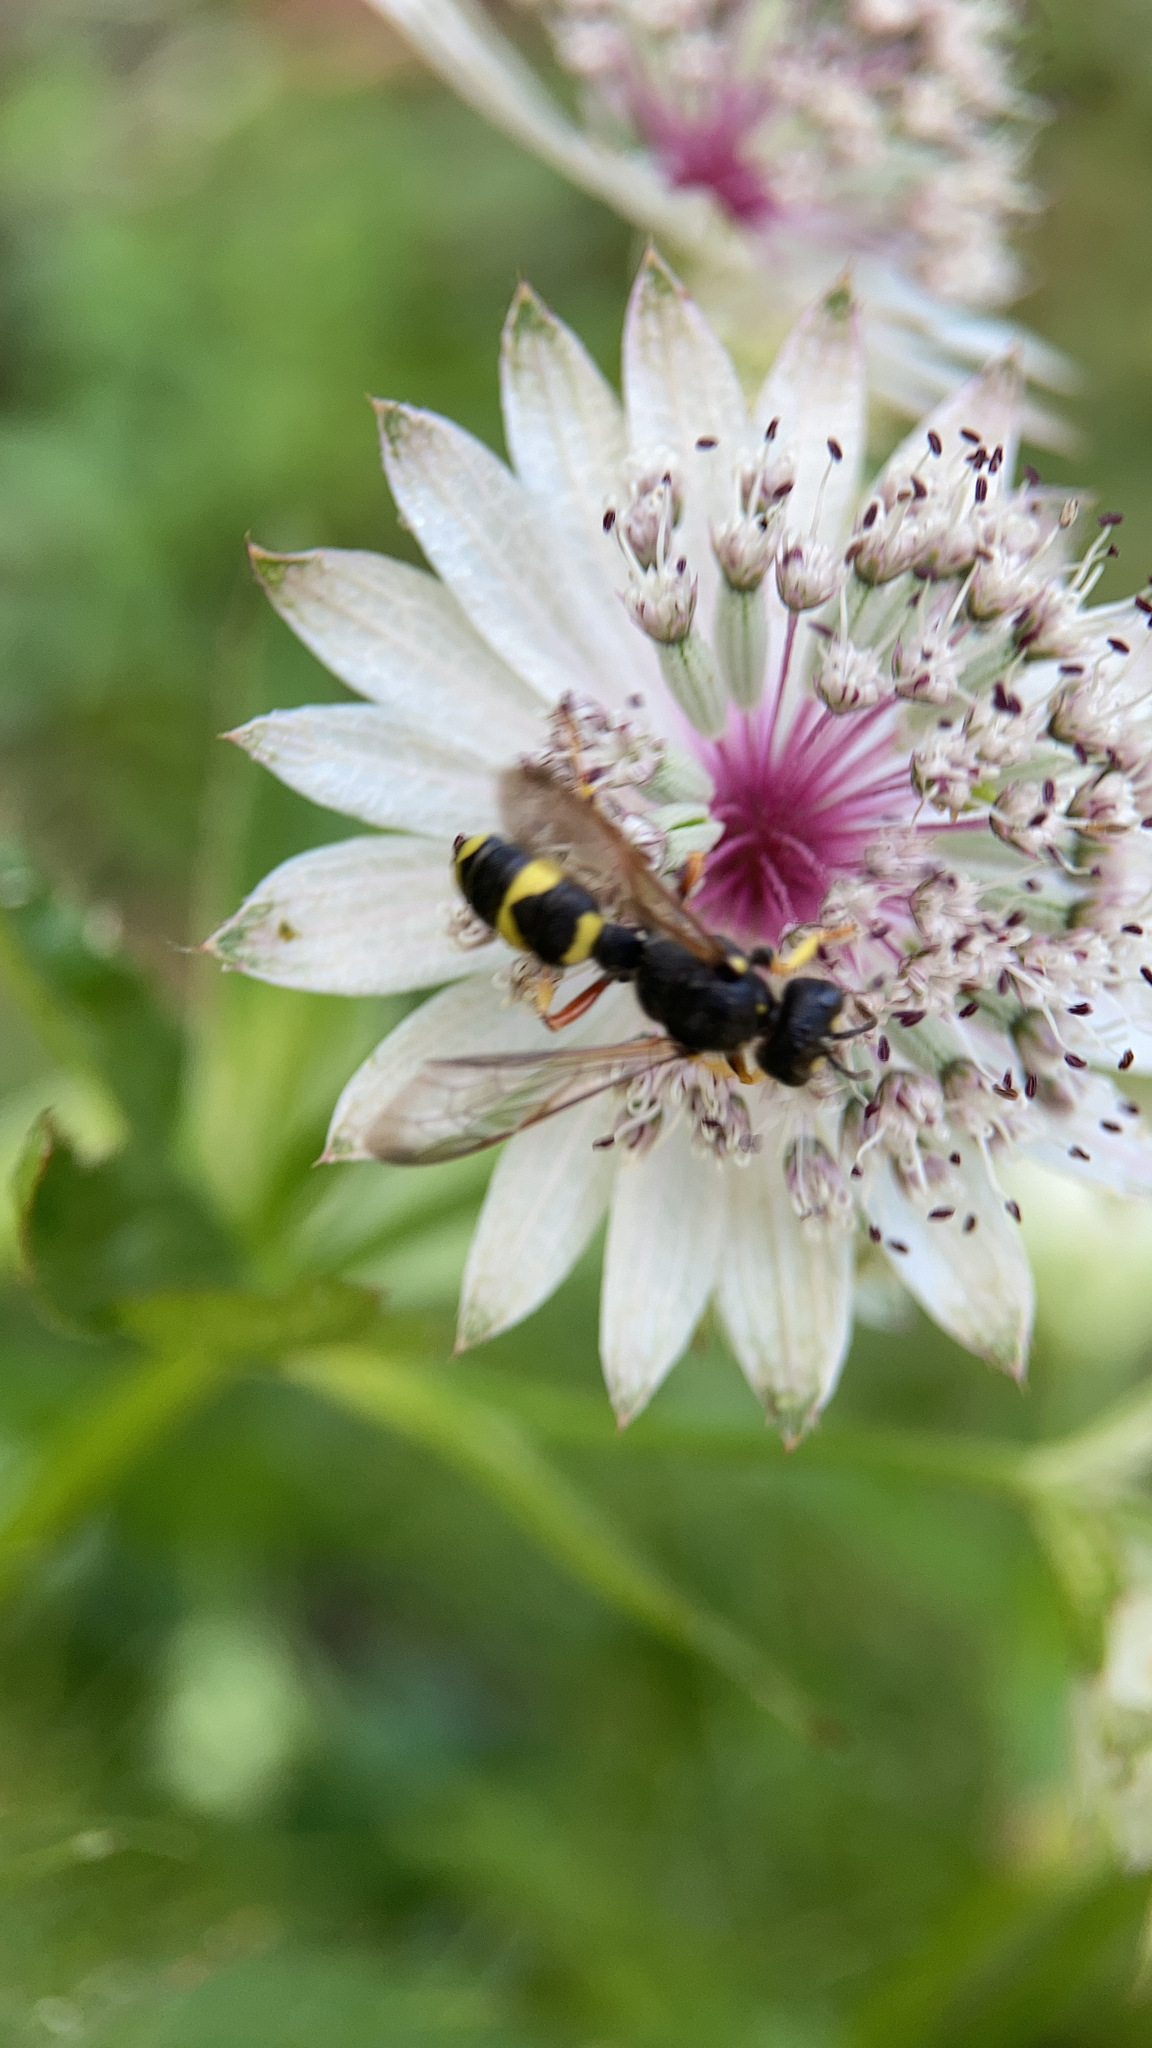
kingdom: Animalia
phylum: Arthropoda
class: Insecta
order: Hymenoptera
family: Crabronidae
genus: Cerceris
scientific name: Cerceris rybyensis
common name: Ornate tailed digger wasp
